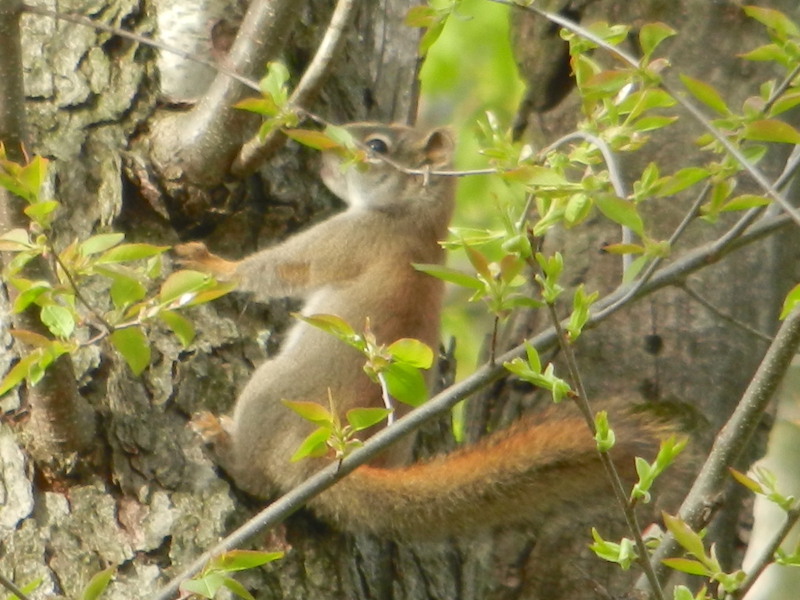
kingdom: Animalia
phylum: Chordata
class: Mammalia
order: Rodentia
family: Sciuridae
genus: Tamiasciurus
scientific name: Tamiasciurus hudsonicus
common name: Red squirrel
